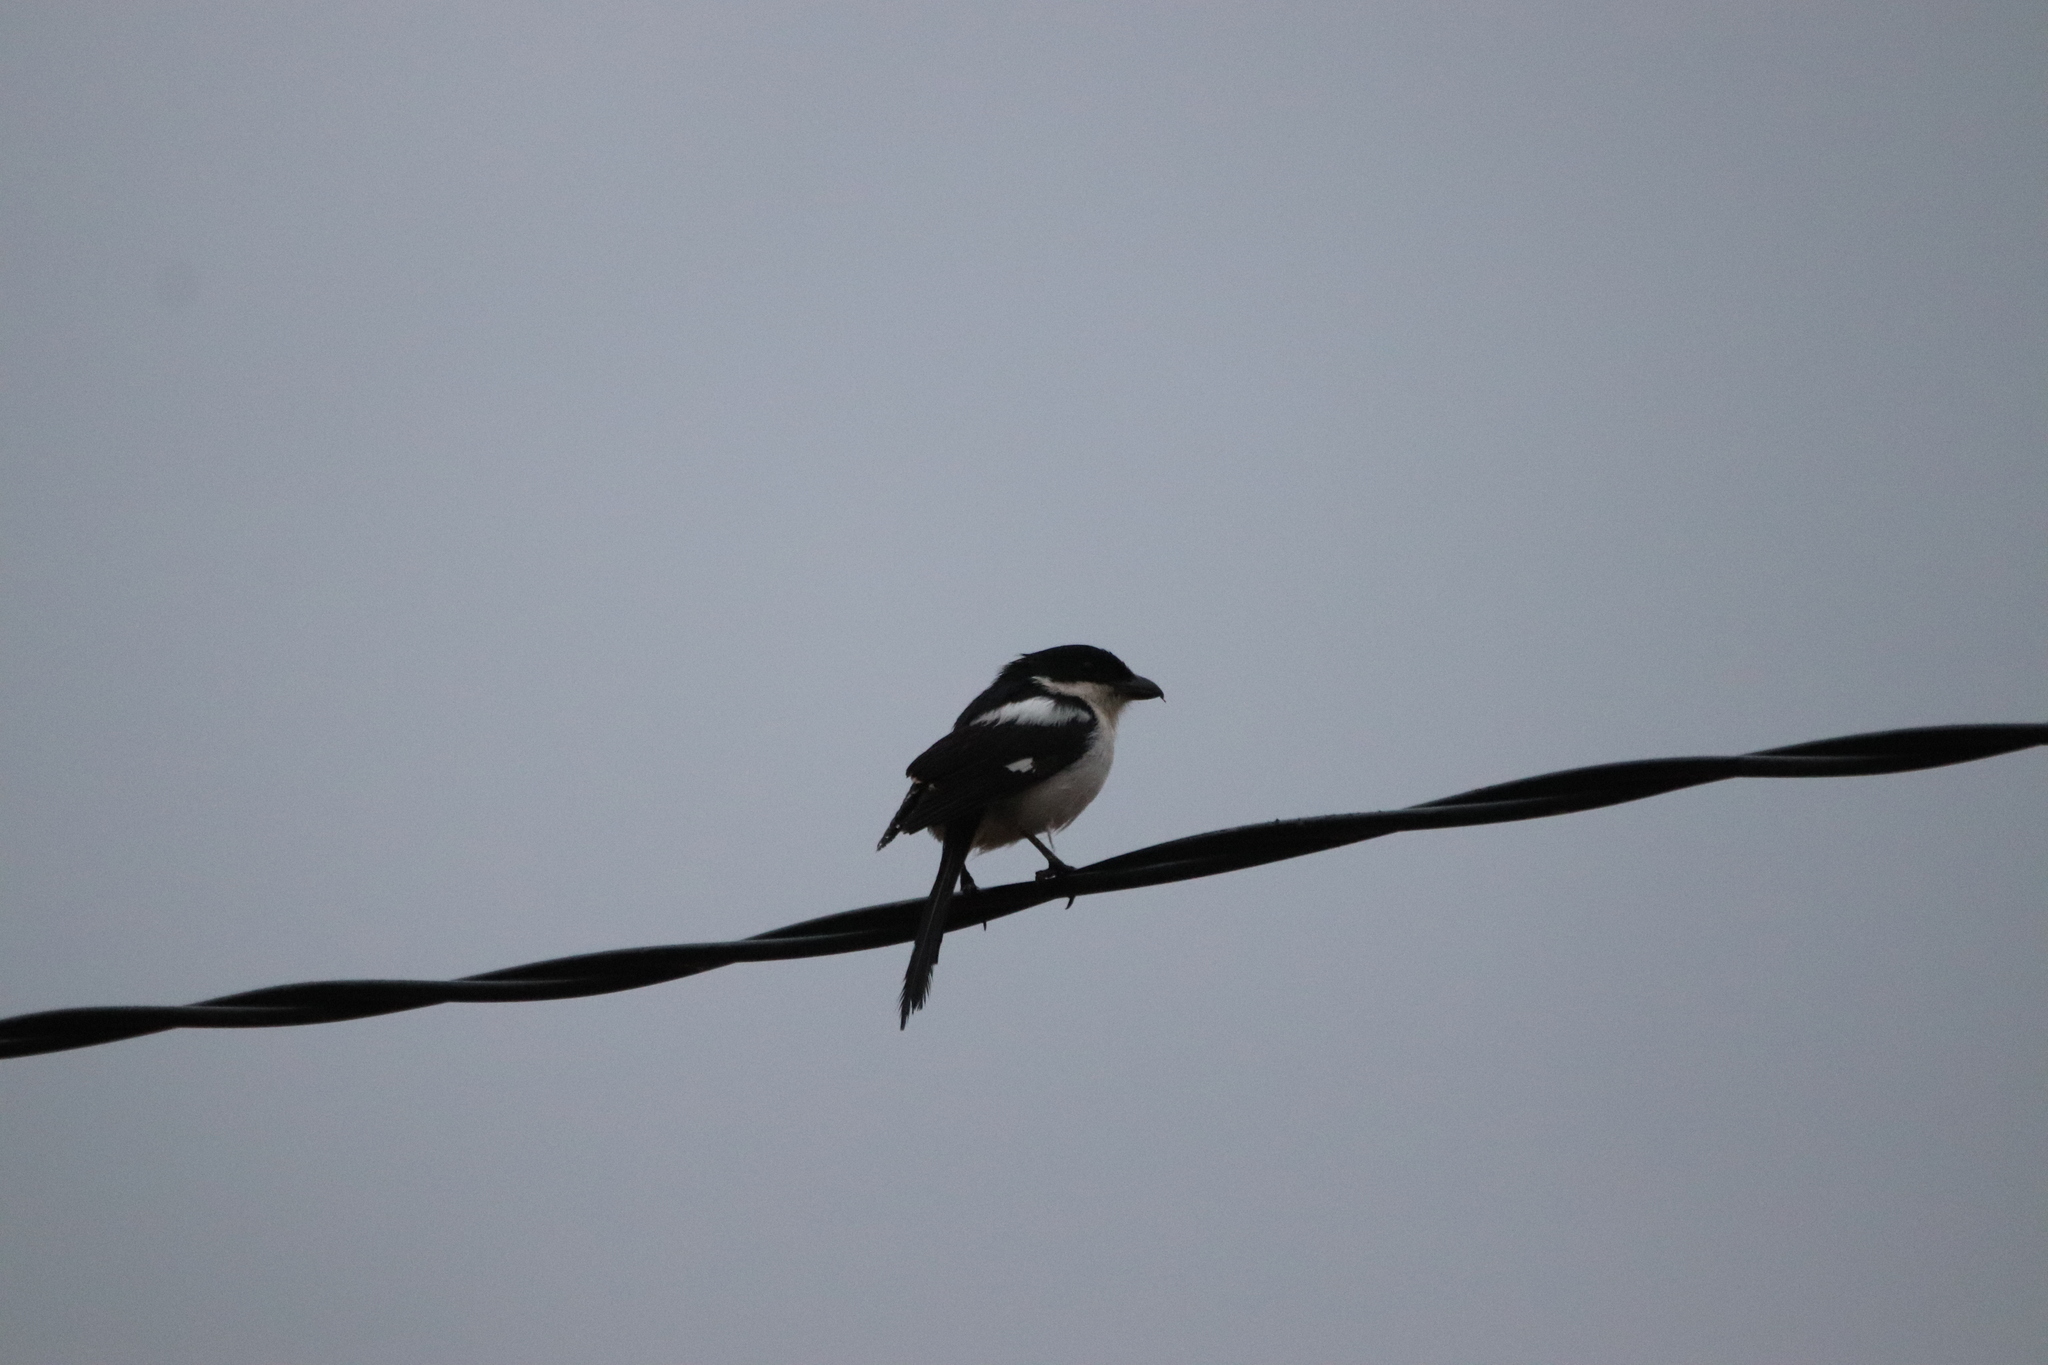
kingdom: Animalia
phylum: Chordata
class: Aves
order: Passeriformes
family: Laniidae
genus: Lanius
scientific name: Lanius humeralis
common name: Northern fiscal
